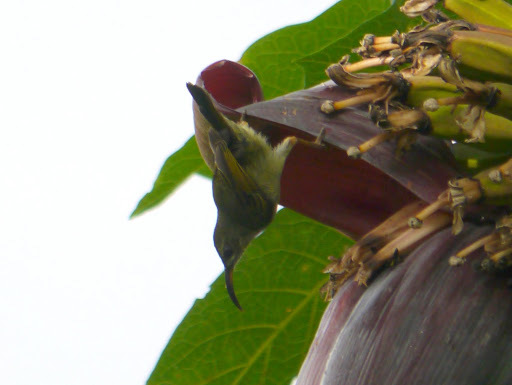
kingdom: Animalia
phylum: Chordata
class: Aves
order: Passeriformes
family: Nectariniidae
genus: Cyanomitra
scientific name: Cyanomitra cyanolaema
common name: Blue-throated brown sunbird
